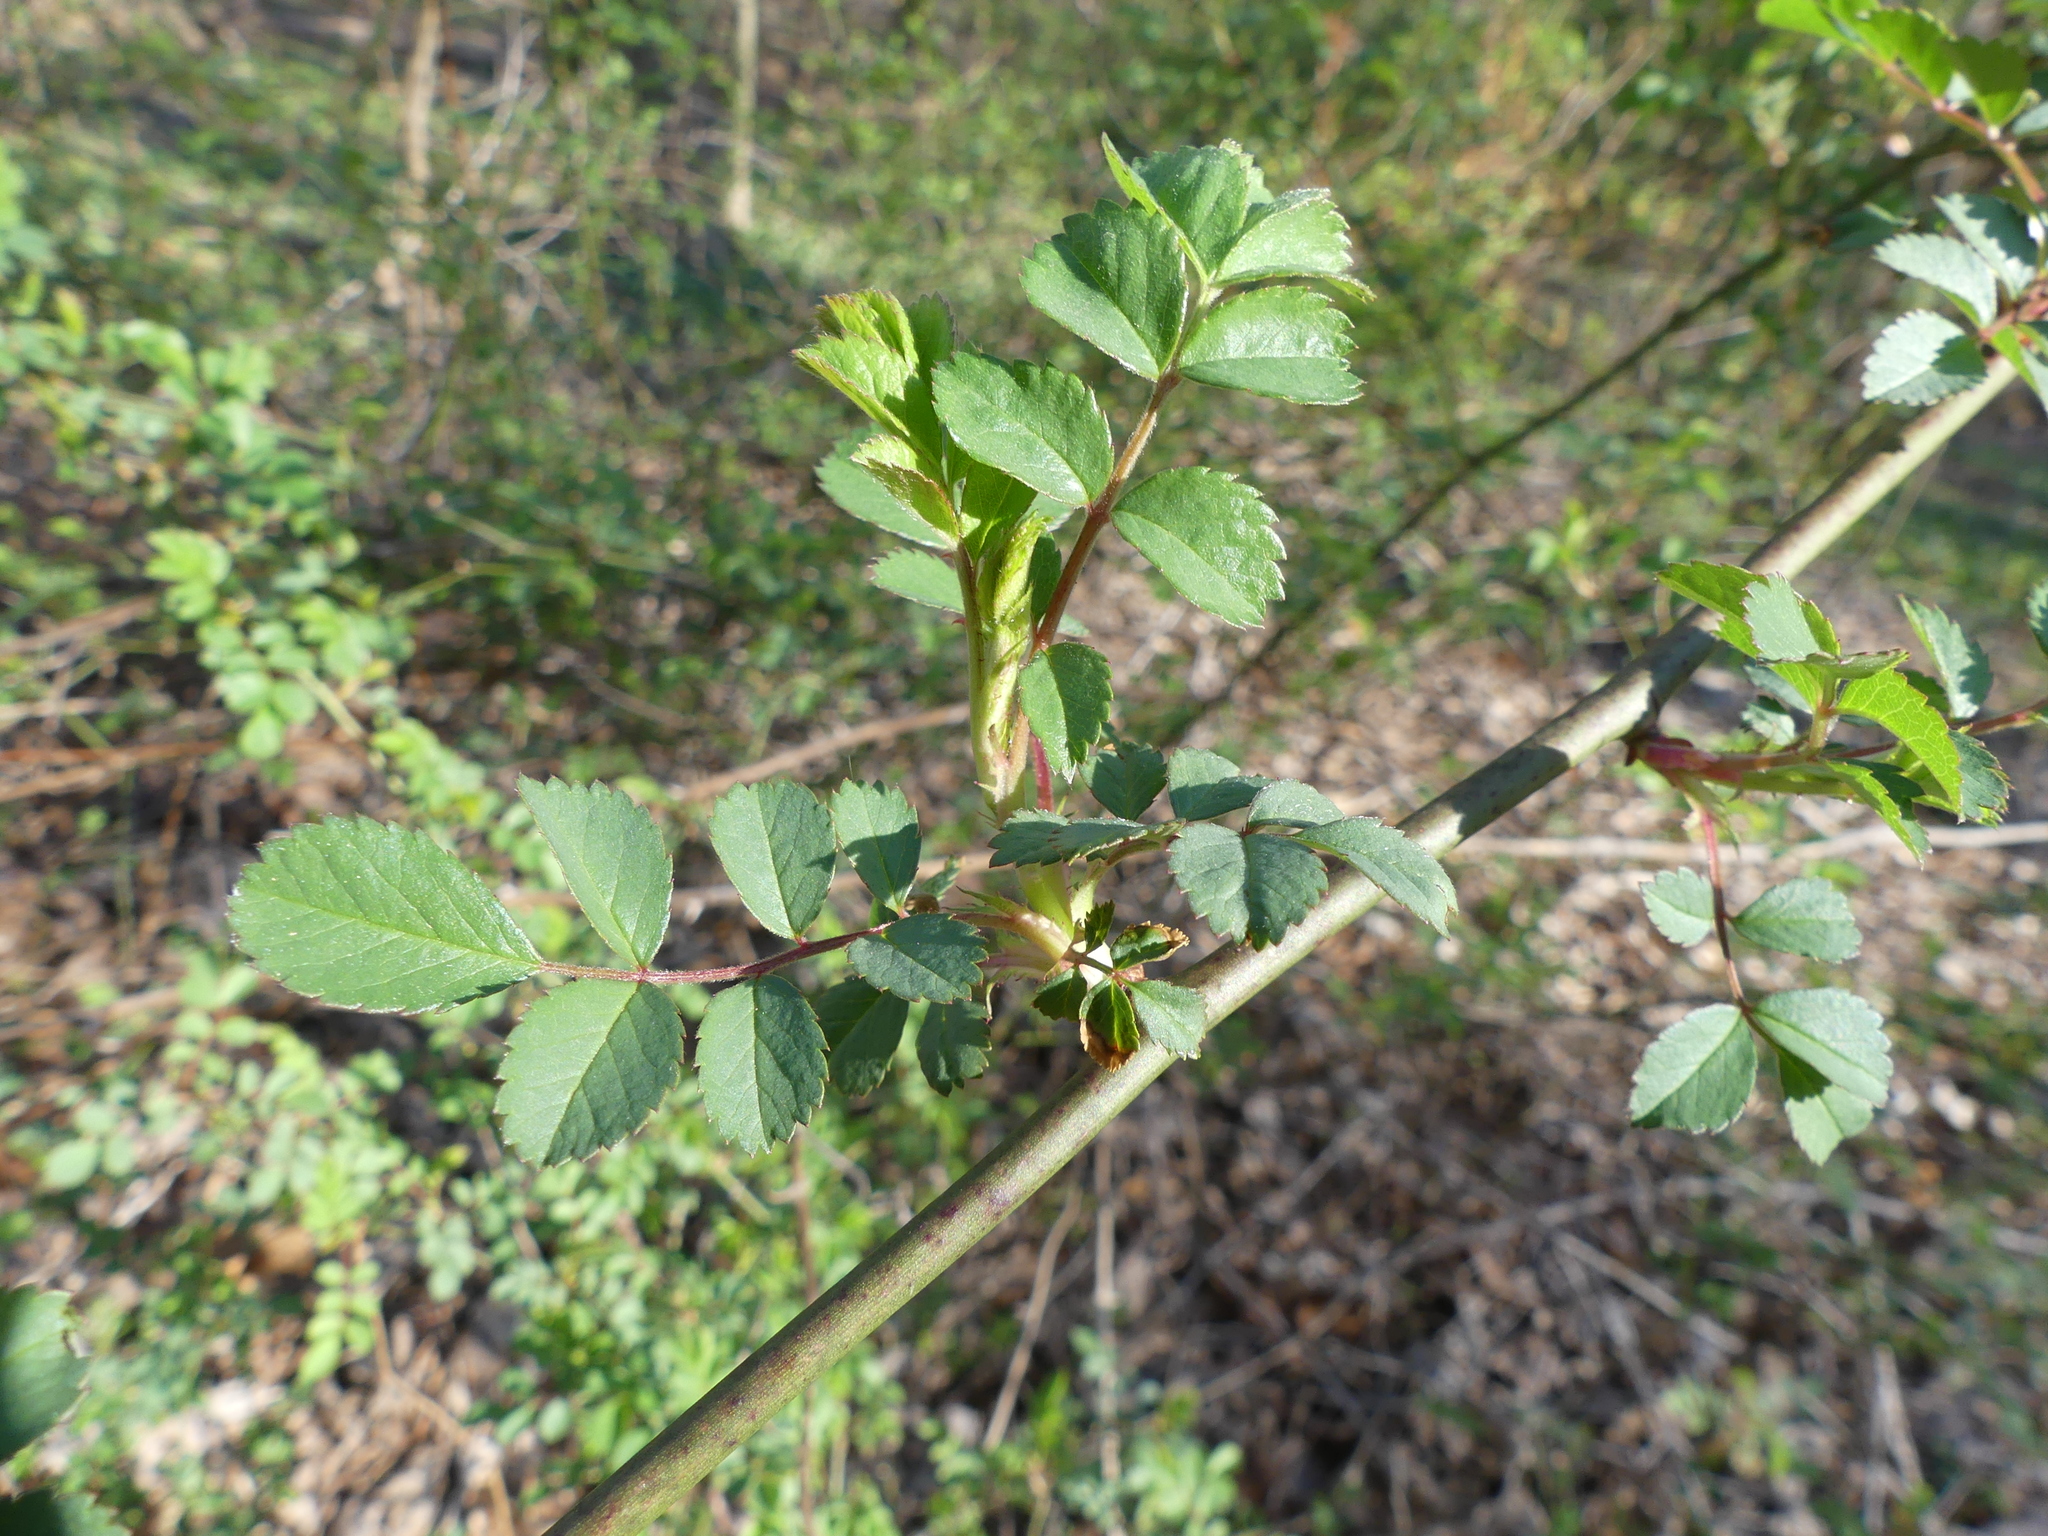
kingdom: Plantae
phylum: Tracheophyta
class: Magnoliopsida
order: Rosales
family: Rosaceae
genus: Rosa
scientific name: Rosa multiflora
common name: Multiflora rose
